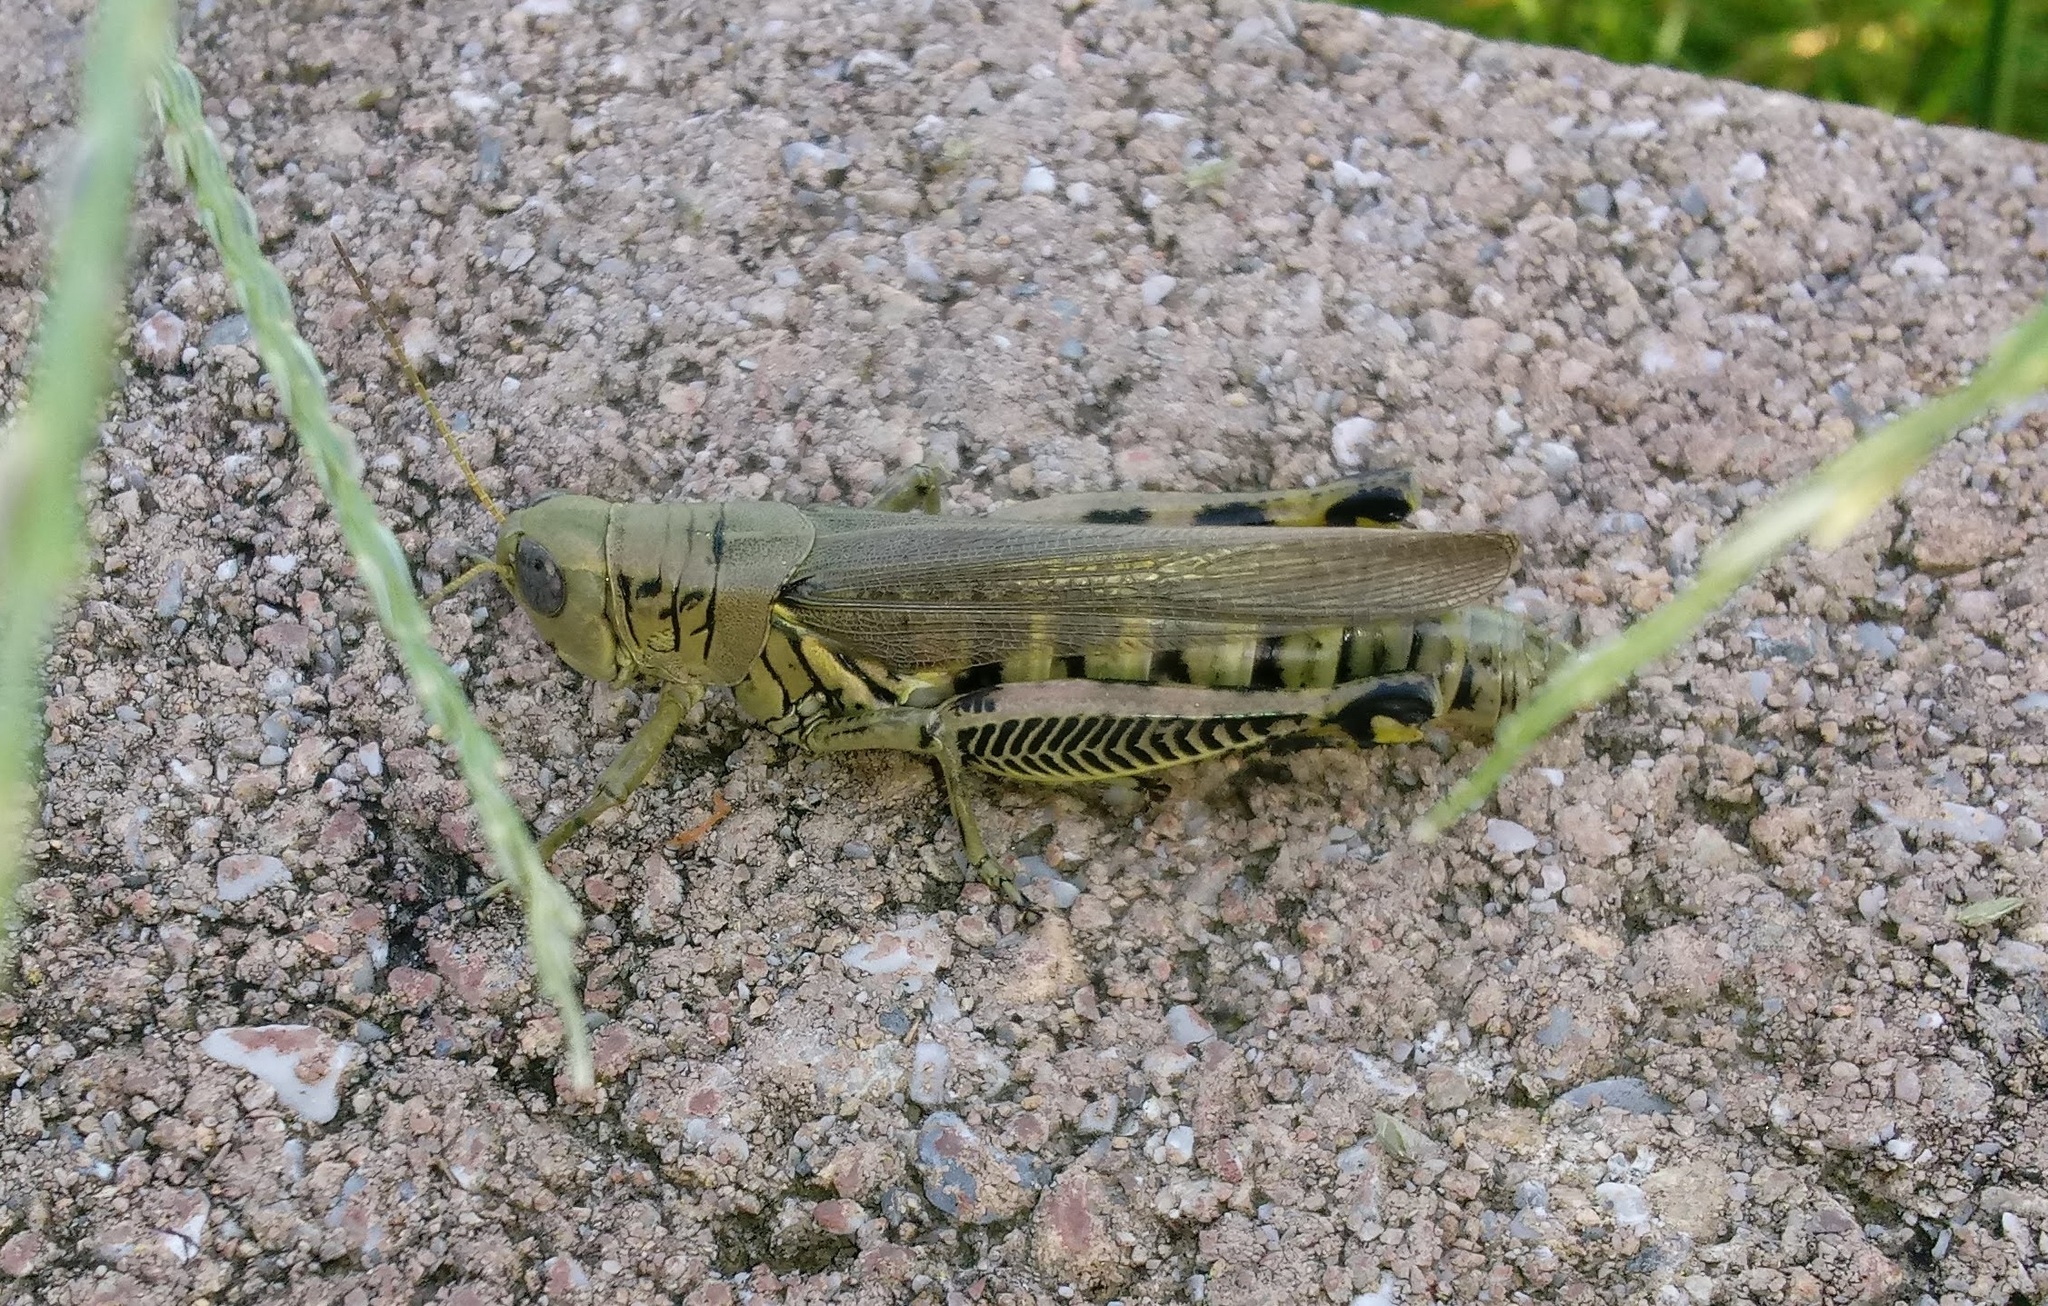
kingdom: Animalia
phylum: Arthropoda
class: Insecta
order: Orthoptera
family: Acrididae
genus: Melanoplus
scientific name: Melanoplus differentialis
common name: Differential grasshopper
